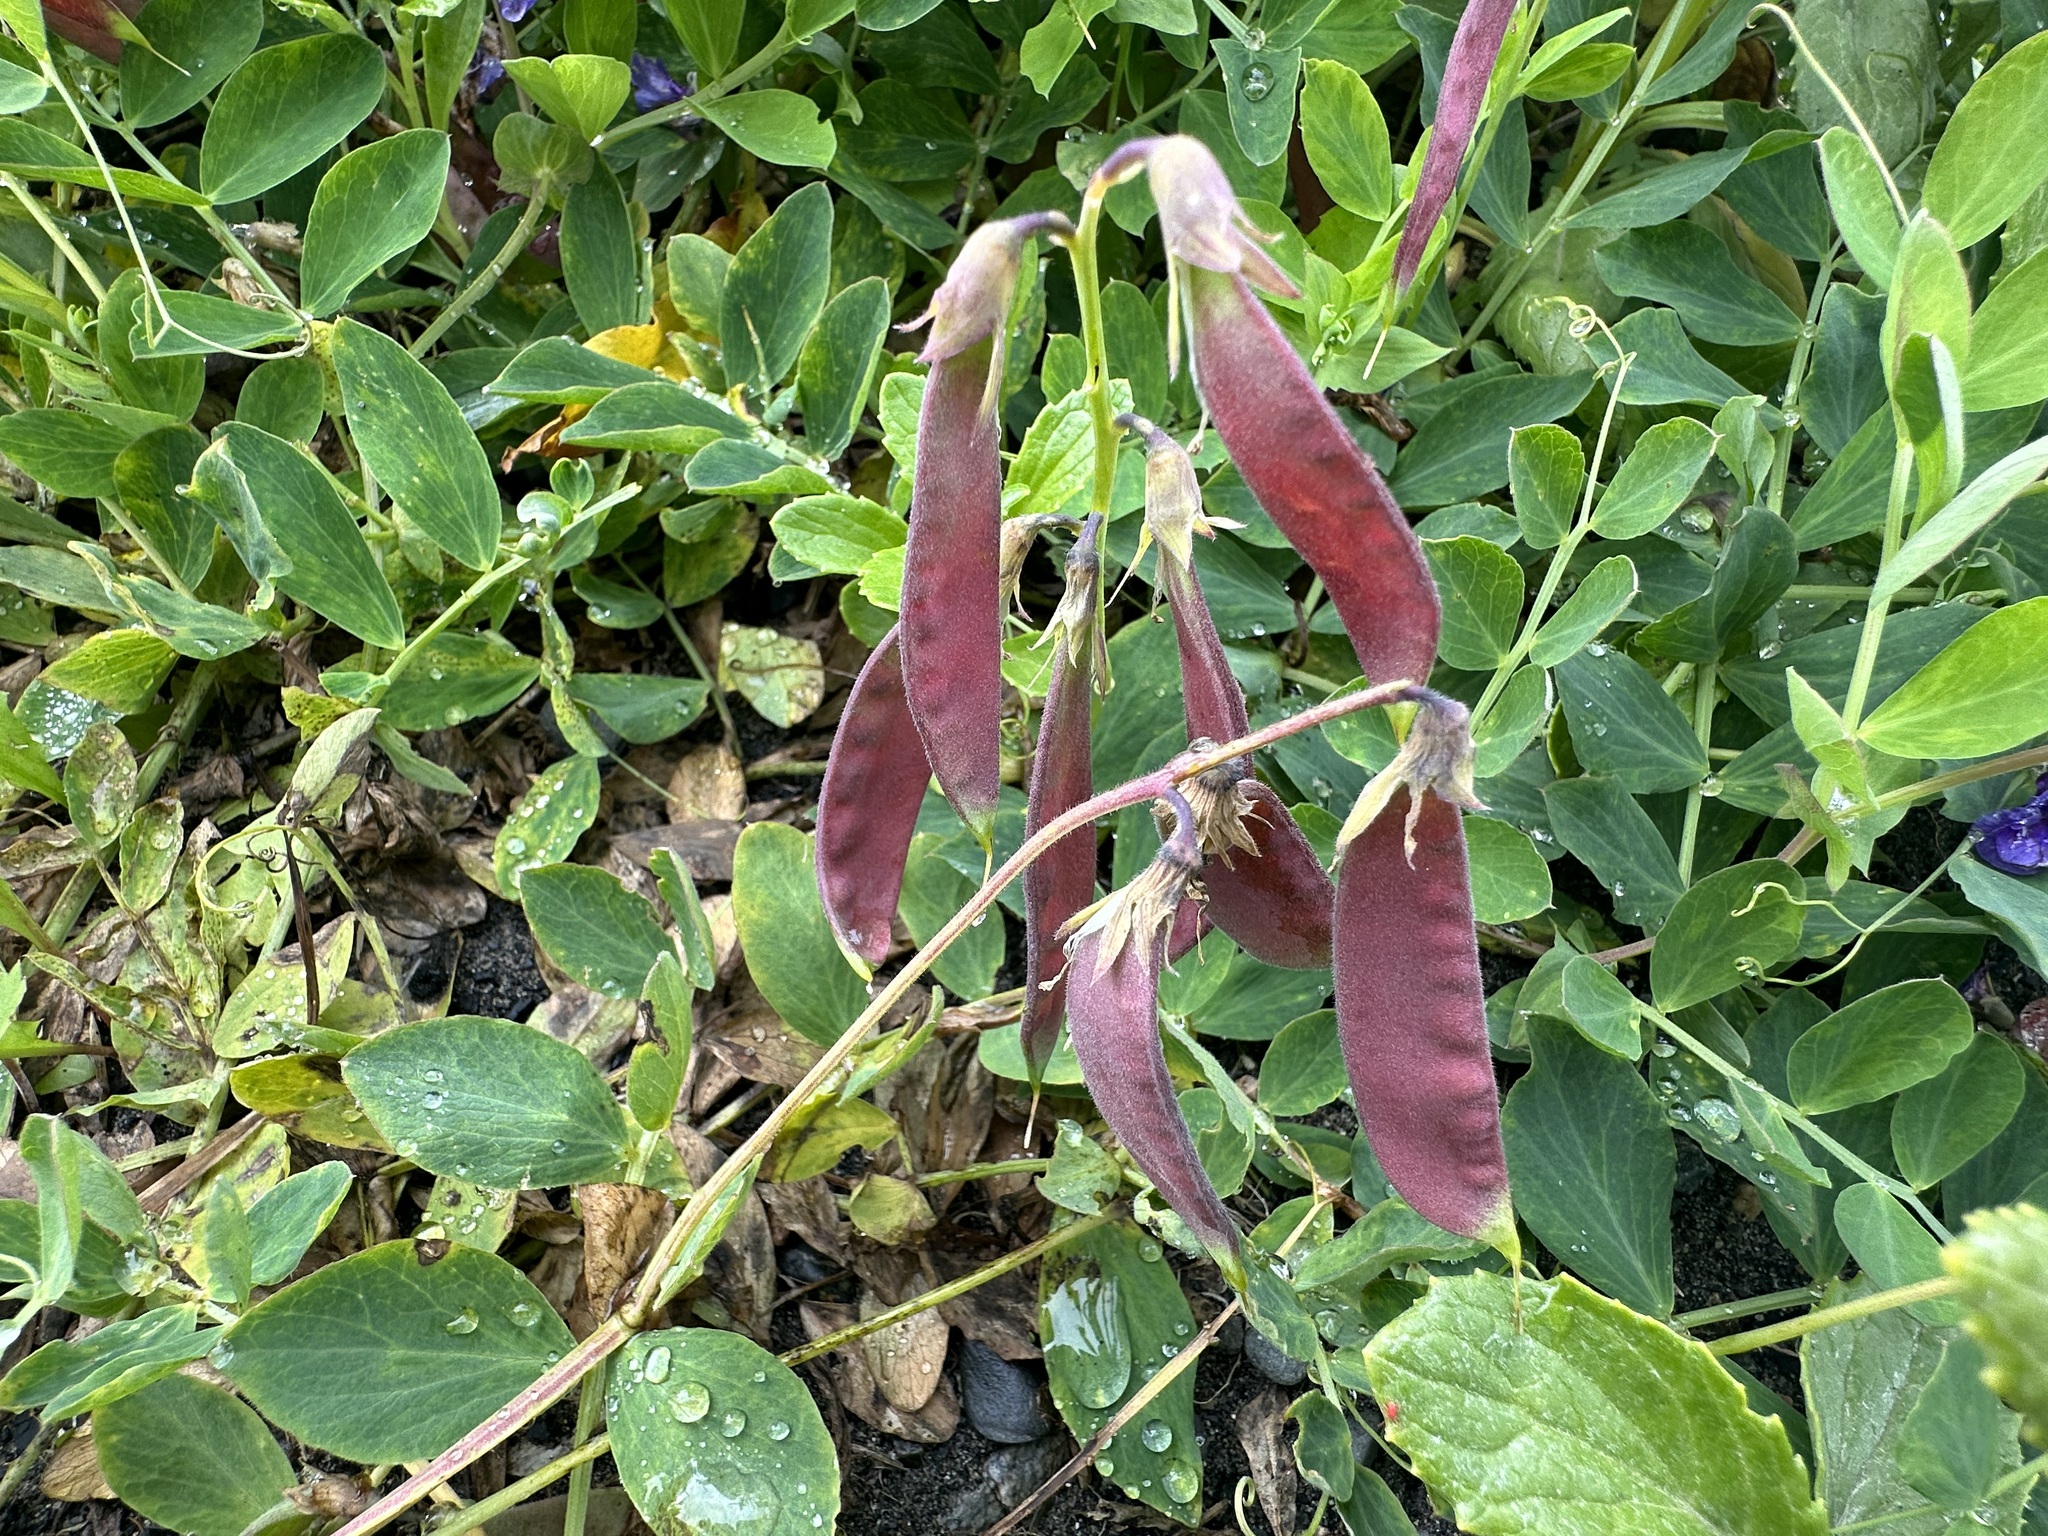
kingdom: Plantae
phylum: Tracheophyta
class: Magnoliopsida
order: Fabales
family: Fabaceae
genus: Lathyrus
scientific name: Lathyrus japonicus
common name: Sea pea
